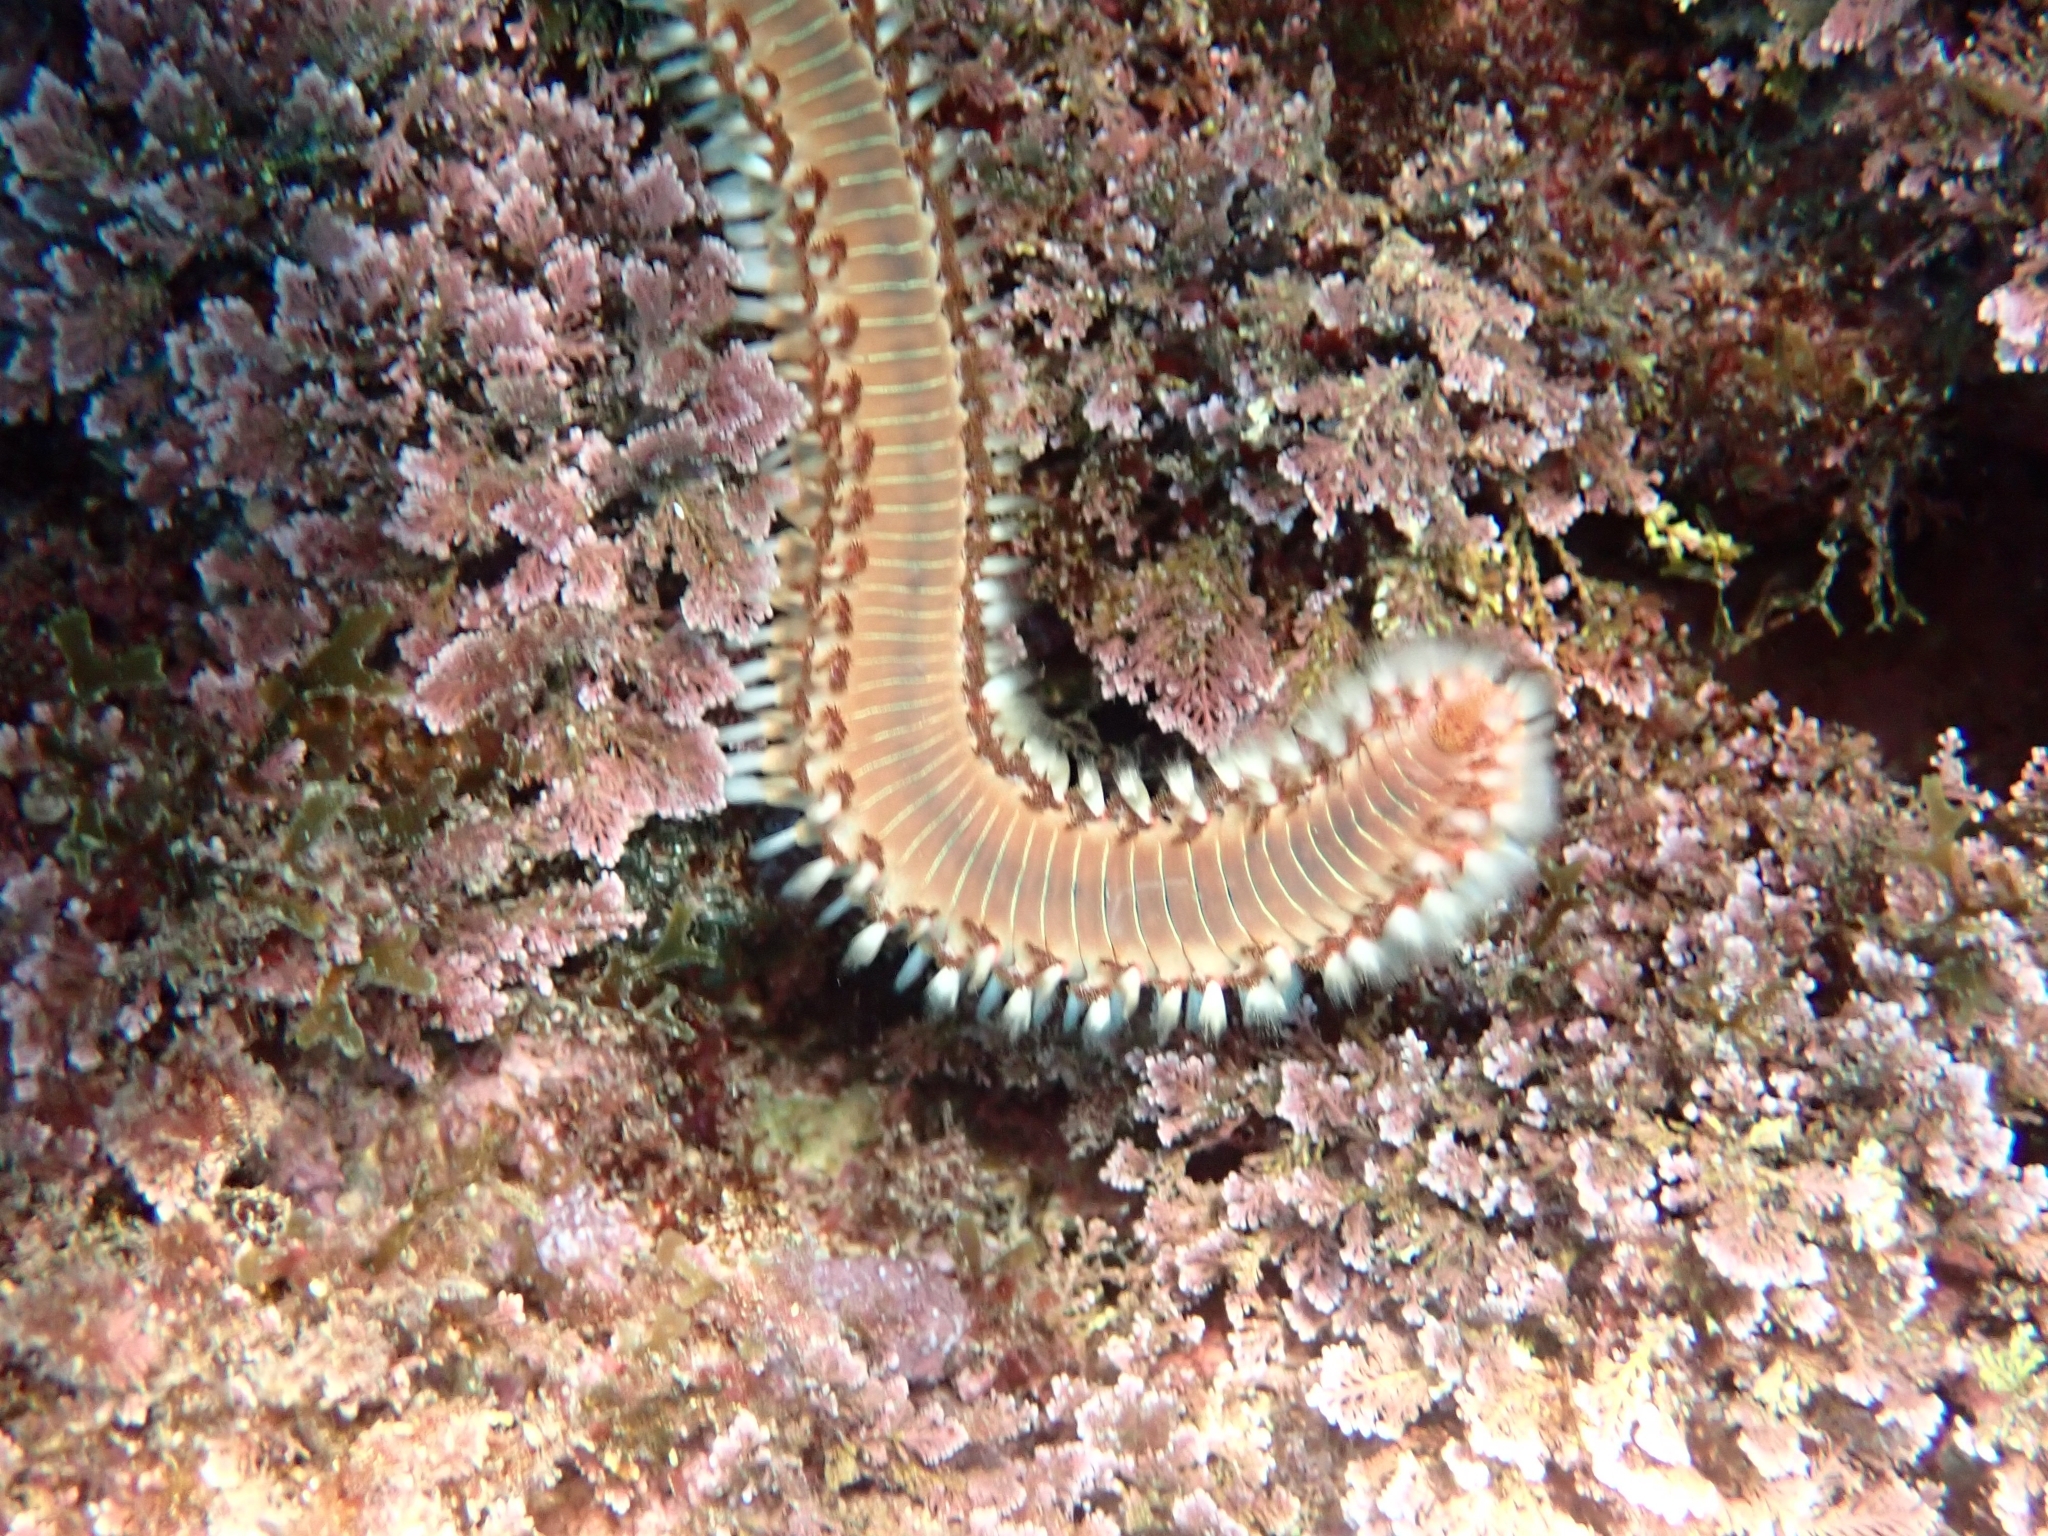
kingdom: Animalia
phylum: Annelida
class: Polychaeta
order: Amphinomida
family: Amphinomidae
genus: Hermodice
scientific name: Hermodice carunculata
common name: Bearded fireworm
